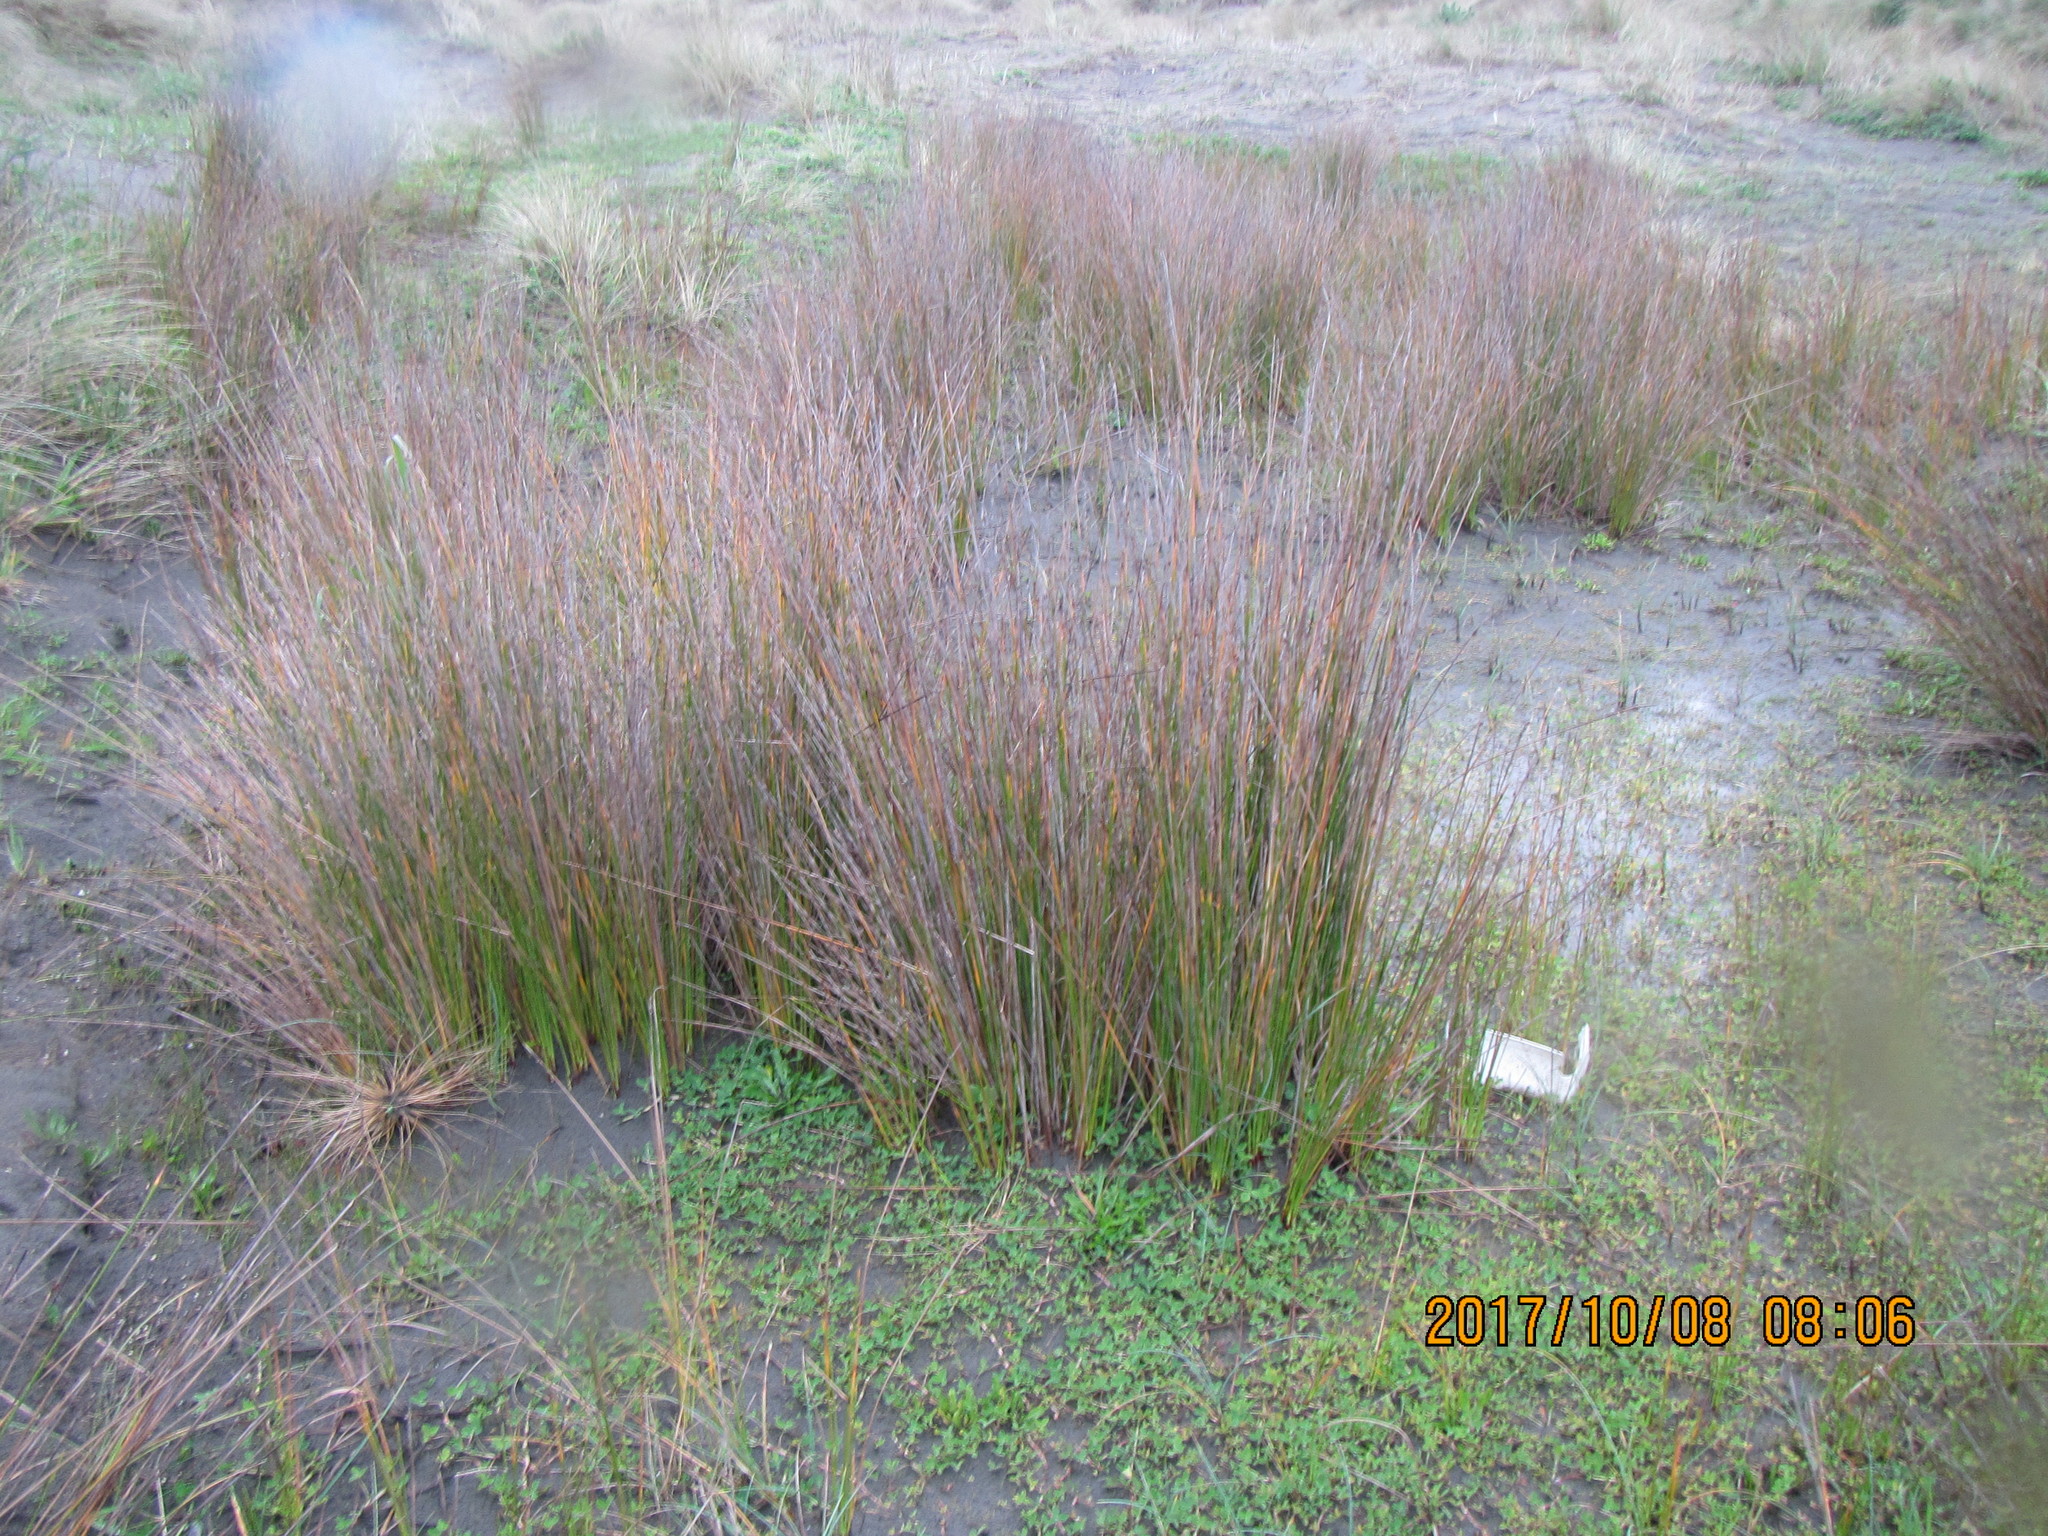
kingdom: Plantae
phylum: Tracheophyta
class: Liliopsida
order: Poales
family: Cyperaceae
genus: Ficinia
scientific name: Ficinia nodosa
